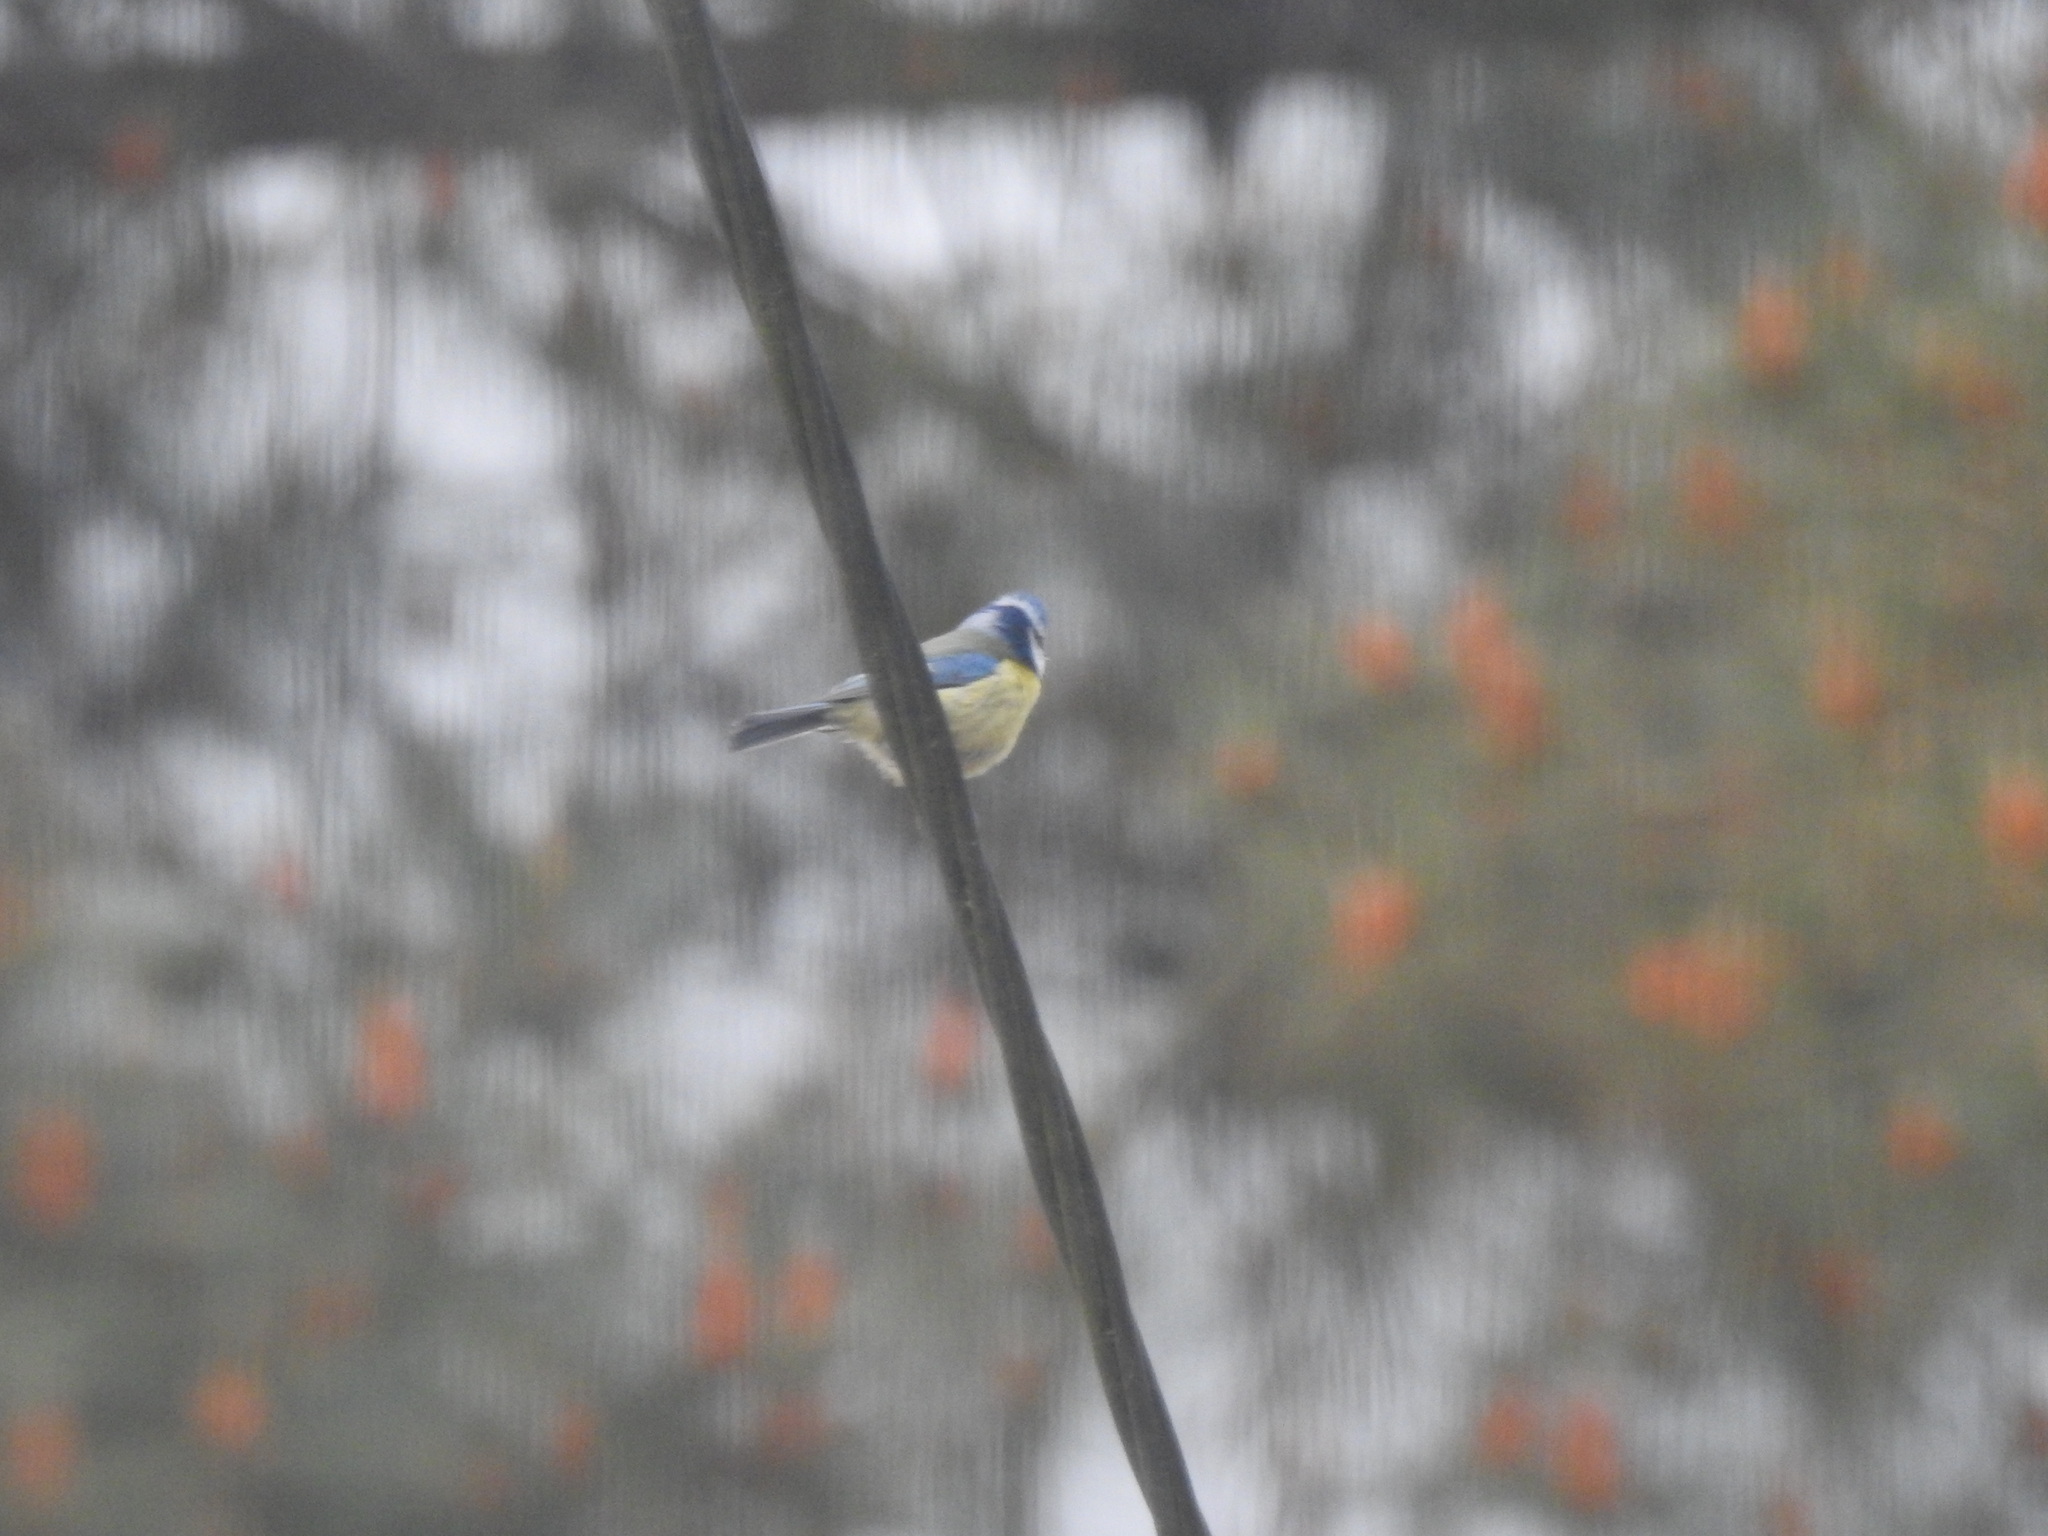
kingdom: Animalia
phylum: Chordata
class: Aves
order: Passeriformes
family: Paridae
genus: Cyanistes
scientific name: Cyanistes caeruleus
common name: Eurasian blue tit
